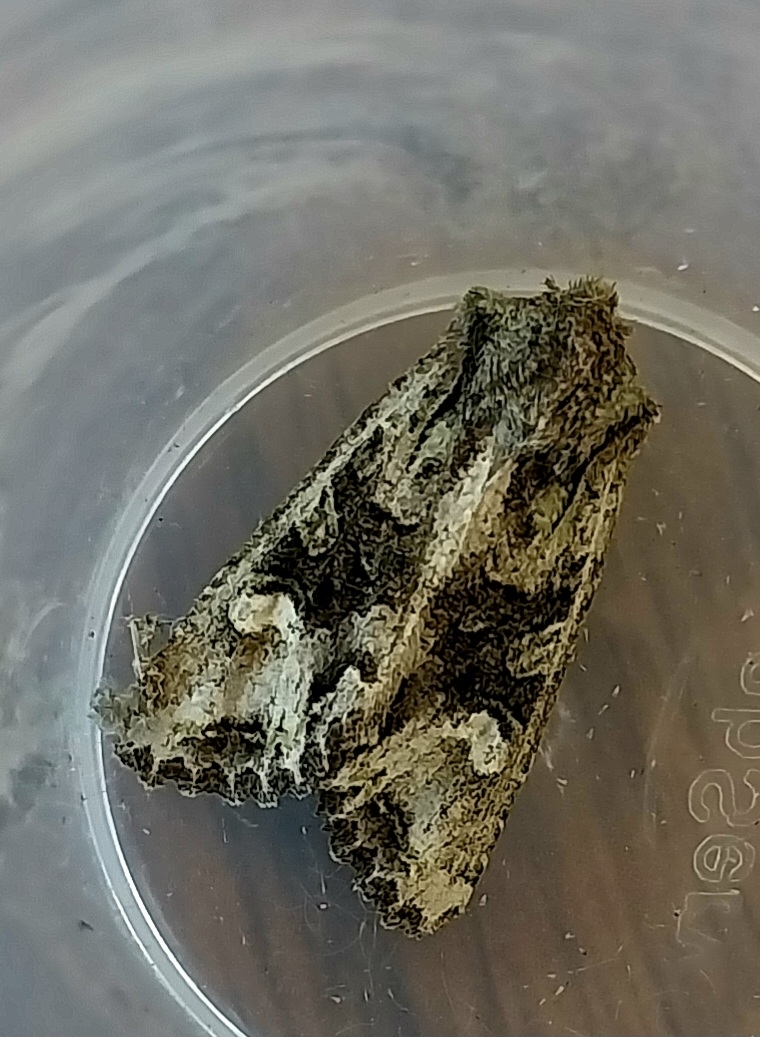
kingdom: Animalia
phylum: Arthropoda
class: Insecta
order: Lepidoptera
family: Noctuidae
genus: Ichneutica
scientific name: Ichneutica
